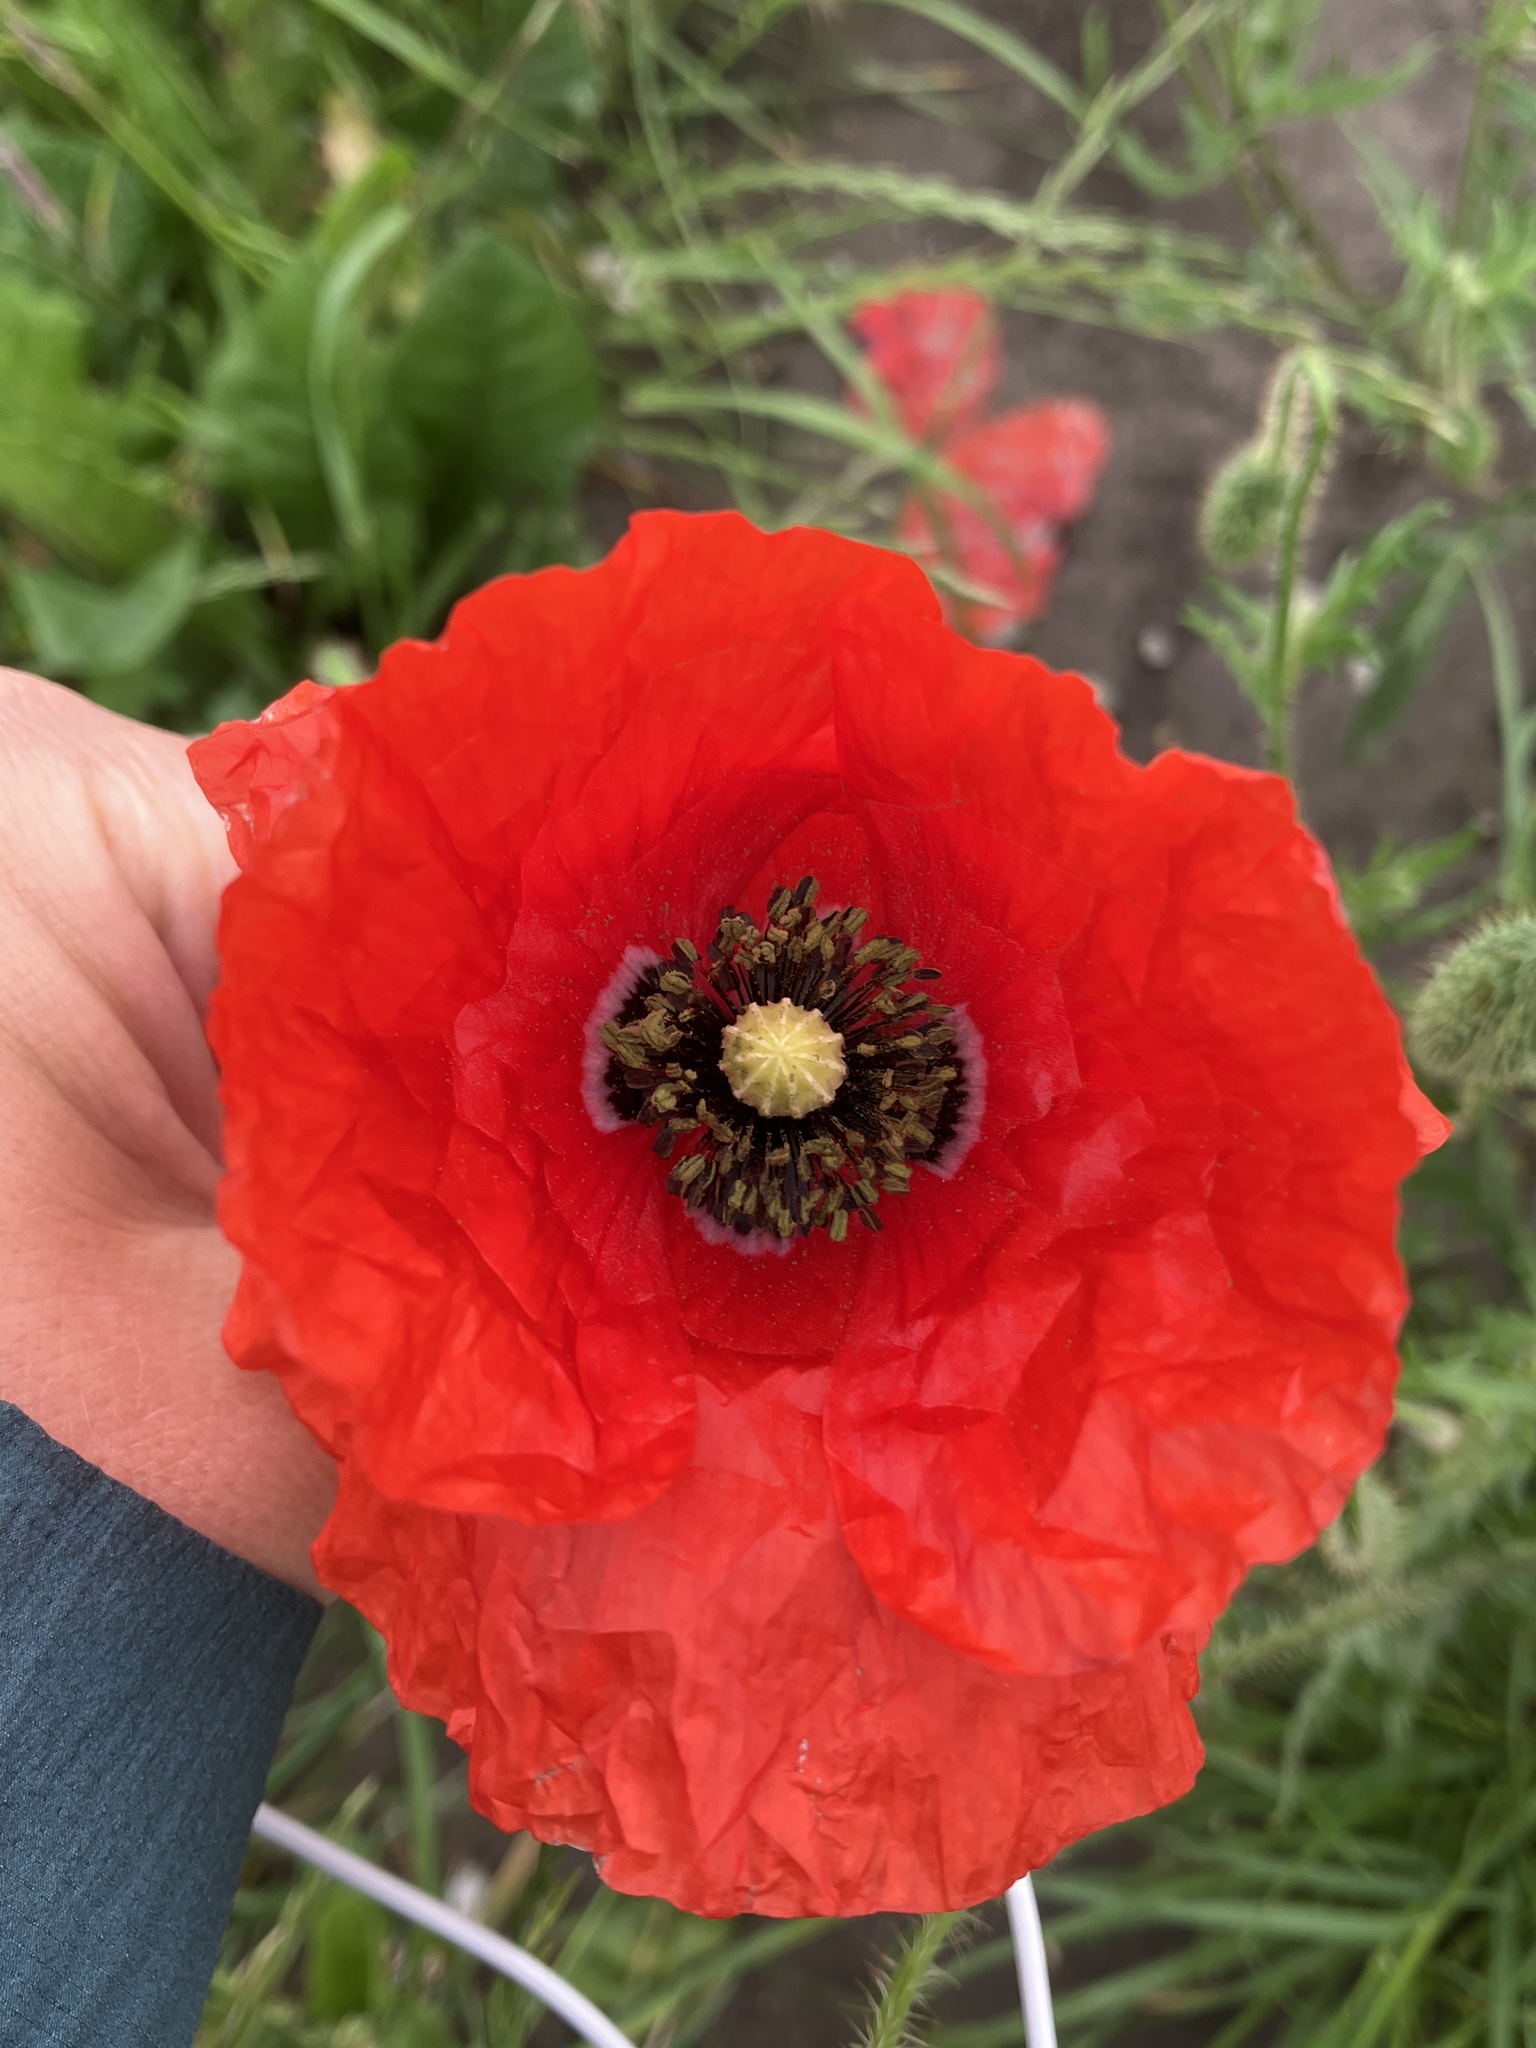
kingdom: Plantae
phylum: Tracheophyta
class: Magnoliopsida
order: Ranunculales
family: Papaveraceae
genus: Papaver
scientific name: Papaver rhoeas
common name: Corn poppy
